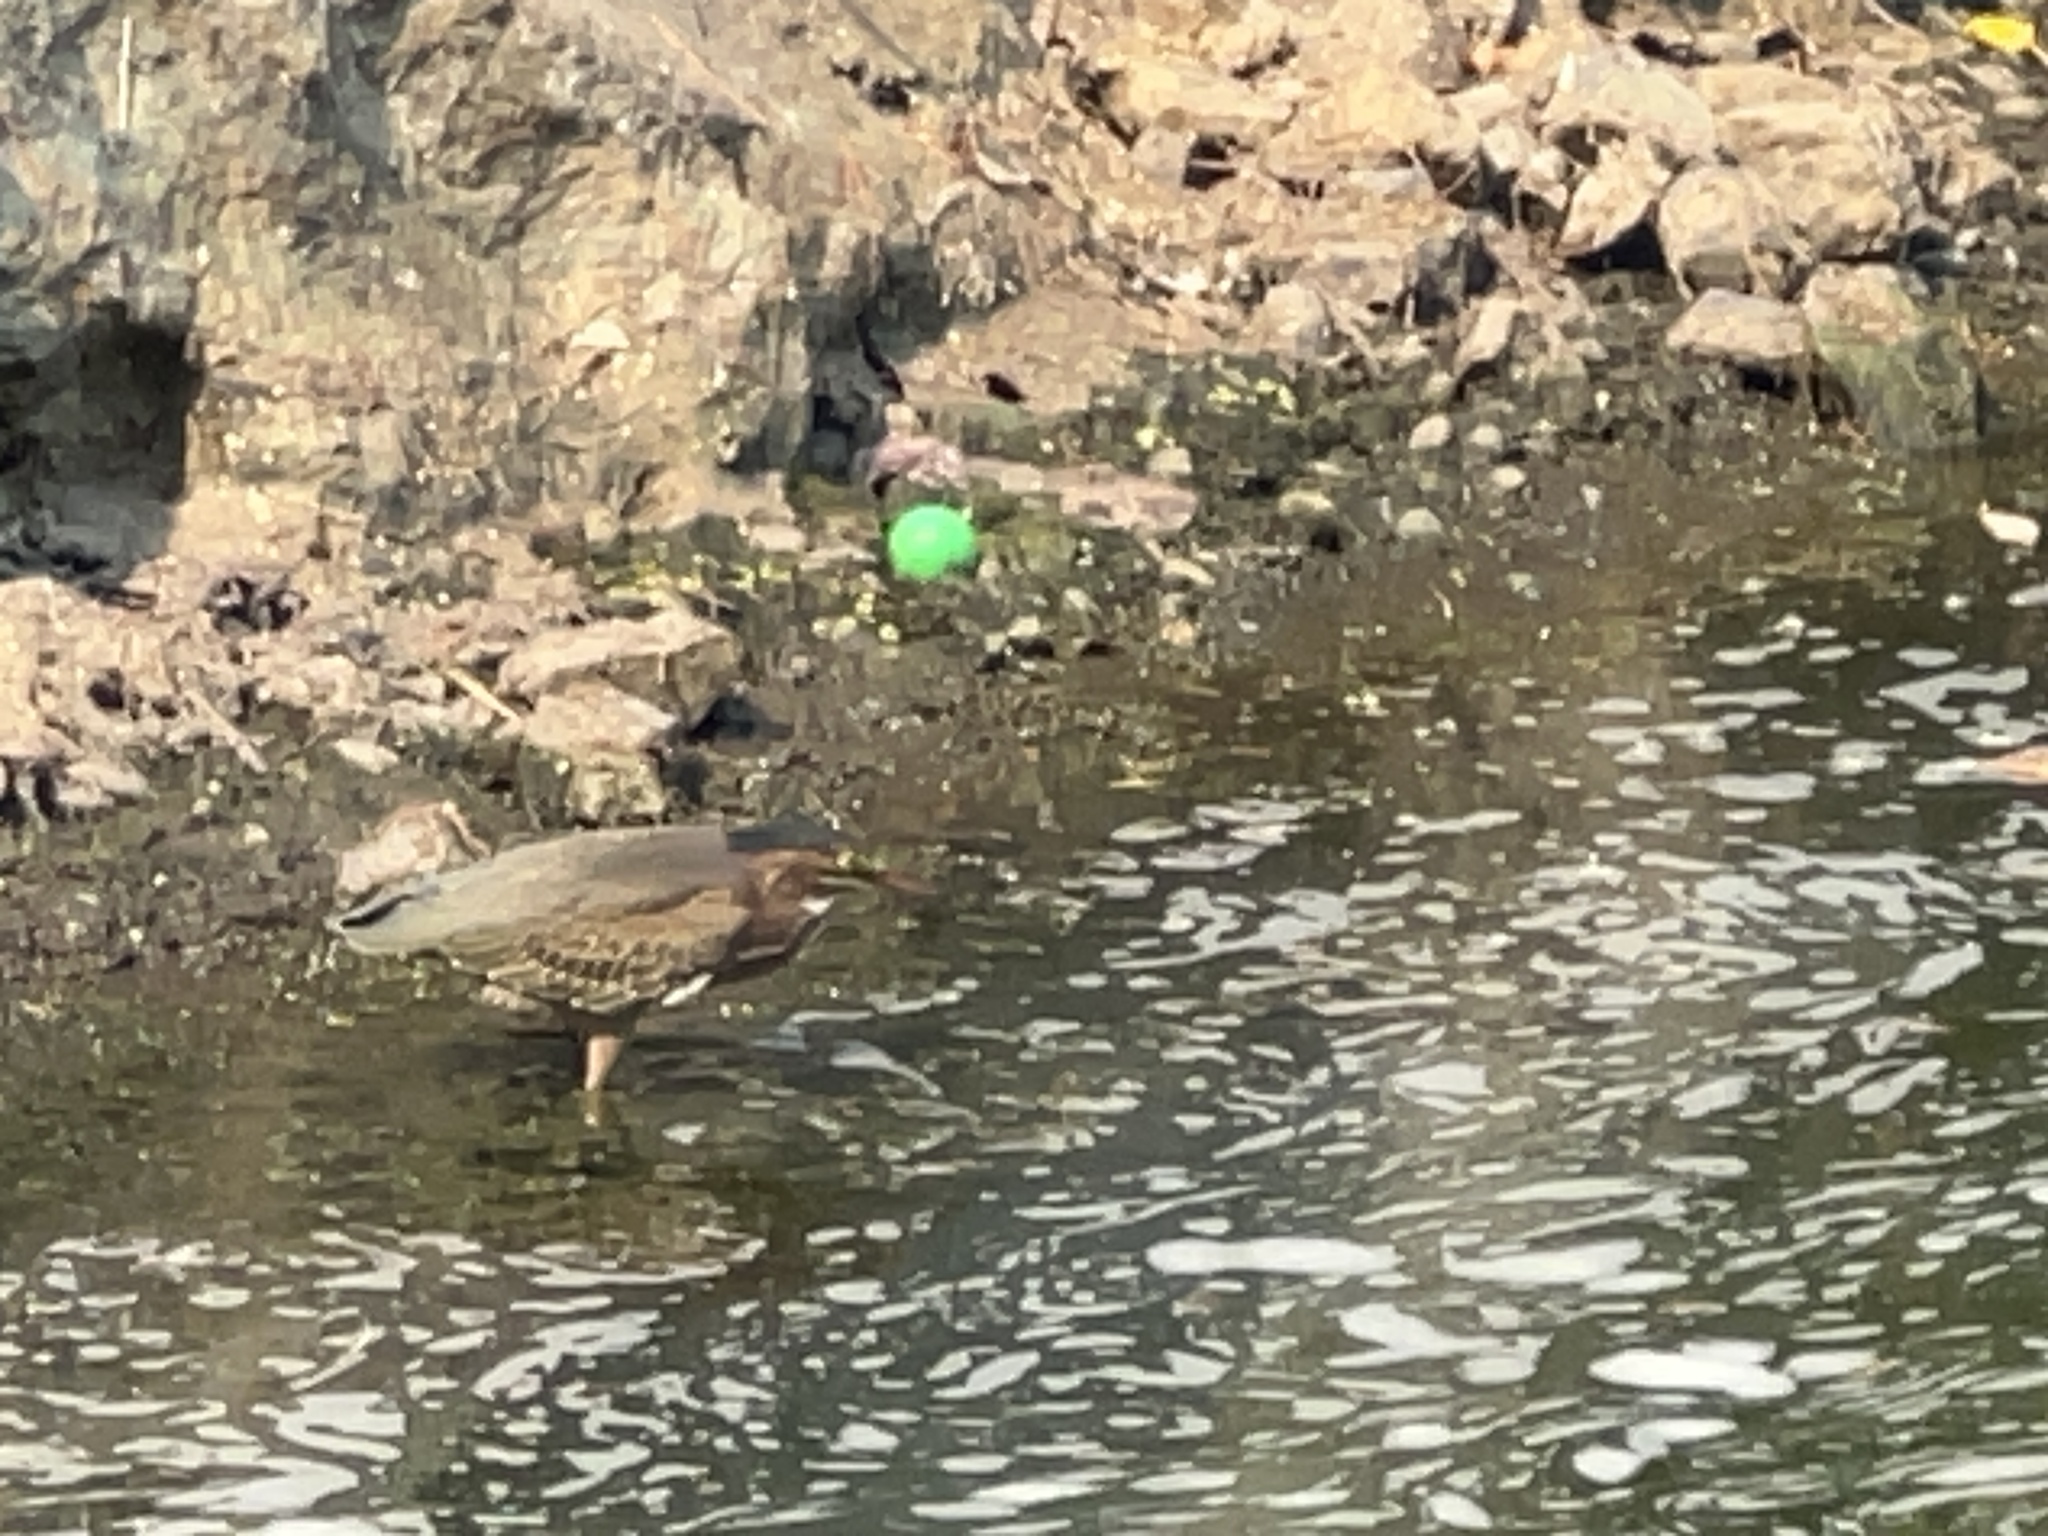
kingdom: Animalia
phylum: Chordata
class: Aves
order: Pelecaniformes
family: Ardeidae
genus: Butorides
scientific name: Butorides virescens
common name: Green heron
